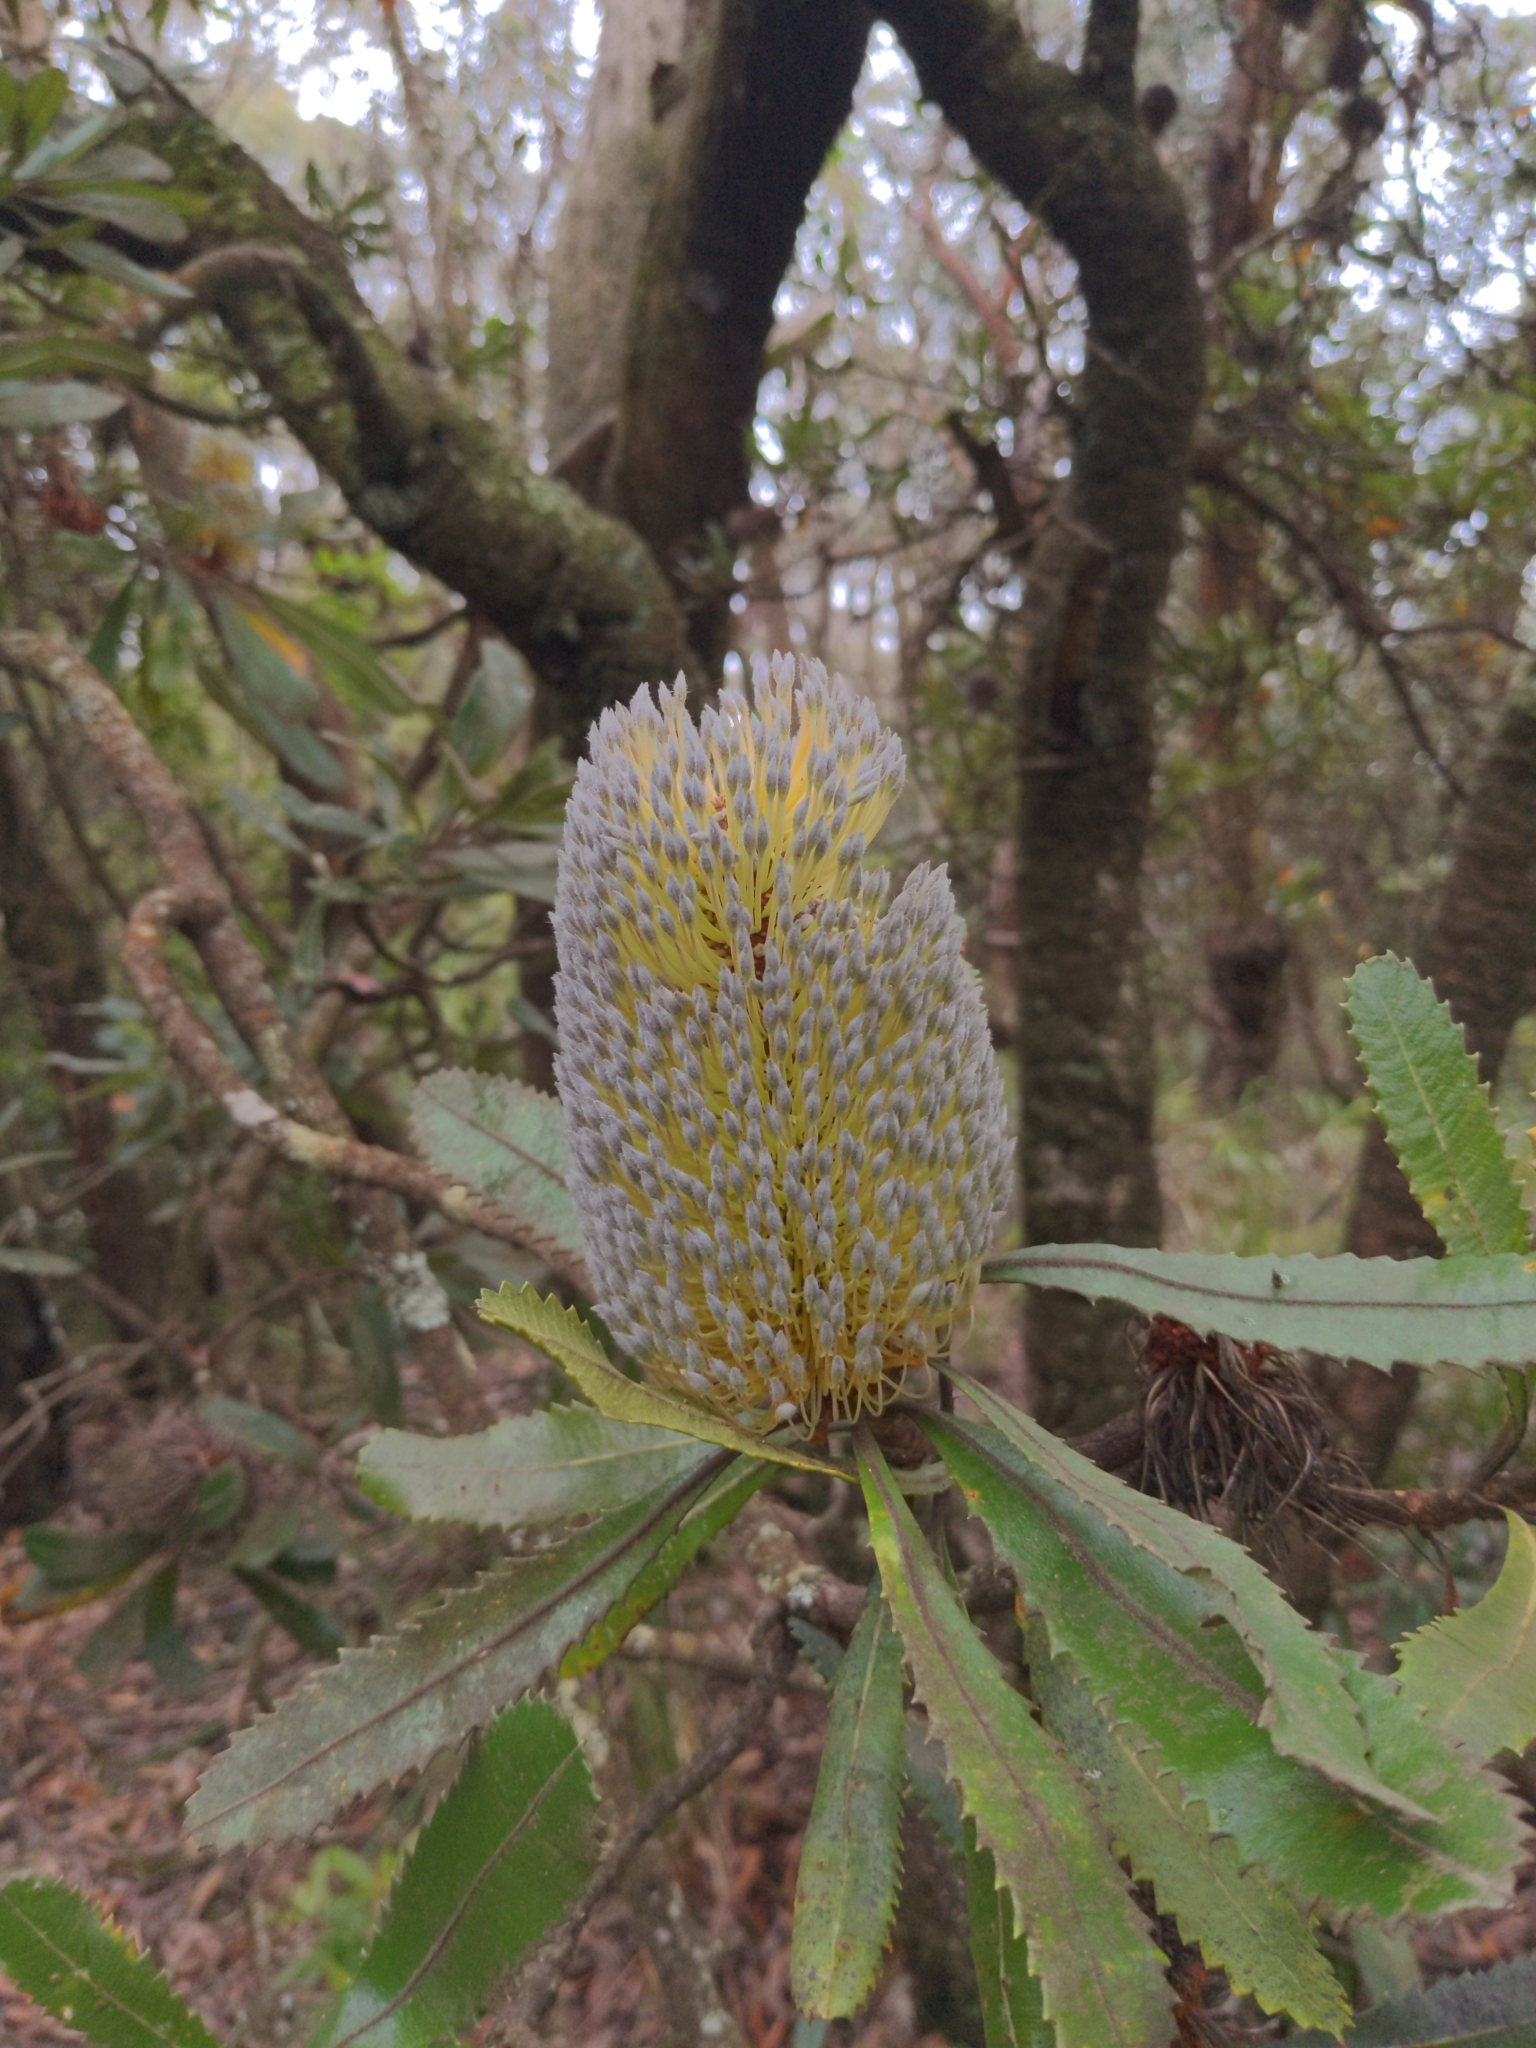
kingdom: Plantae
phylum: Tracheophyta
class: Magnoliopsida
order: Proteales
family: Proteaceae
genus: Banksia
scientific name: Banksia serrata
